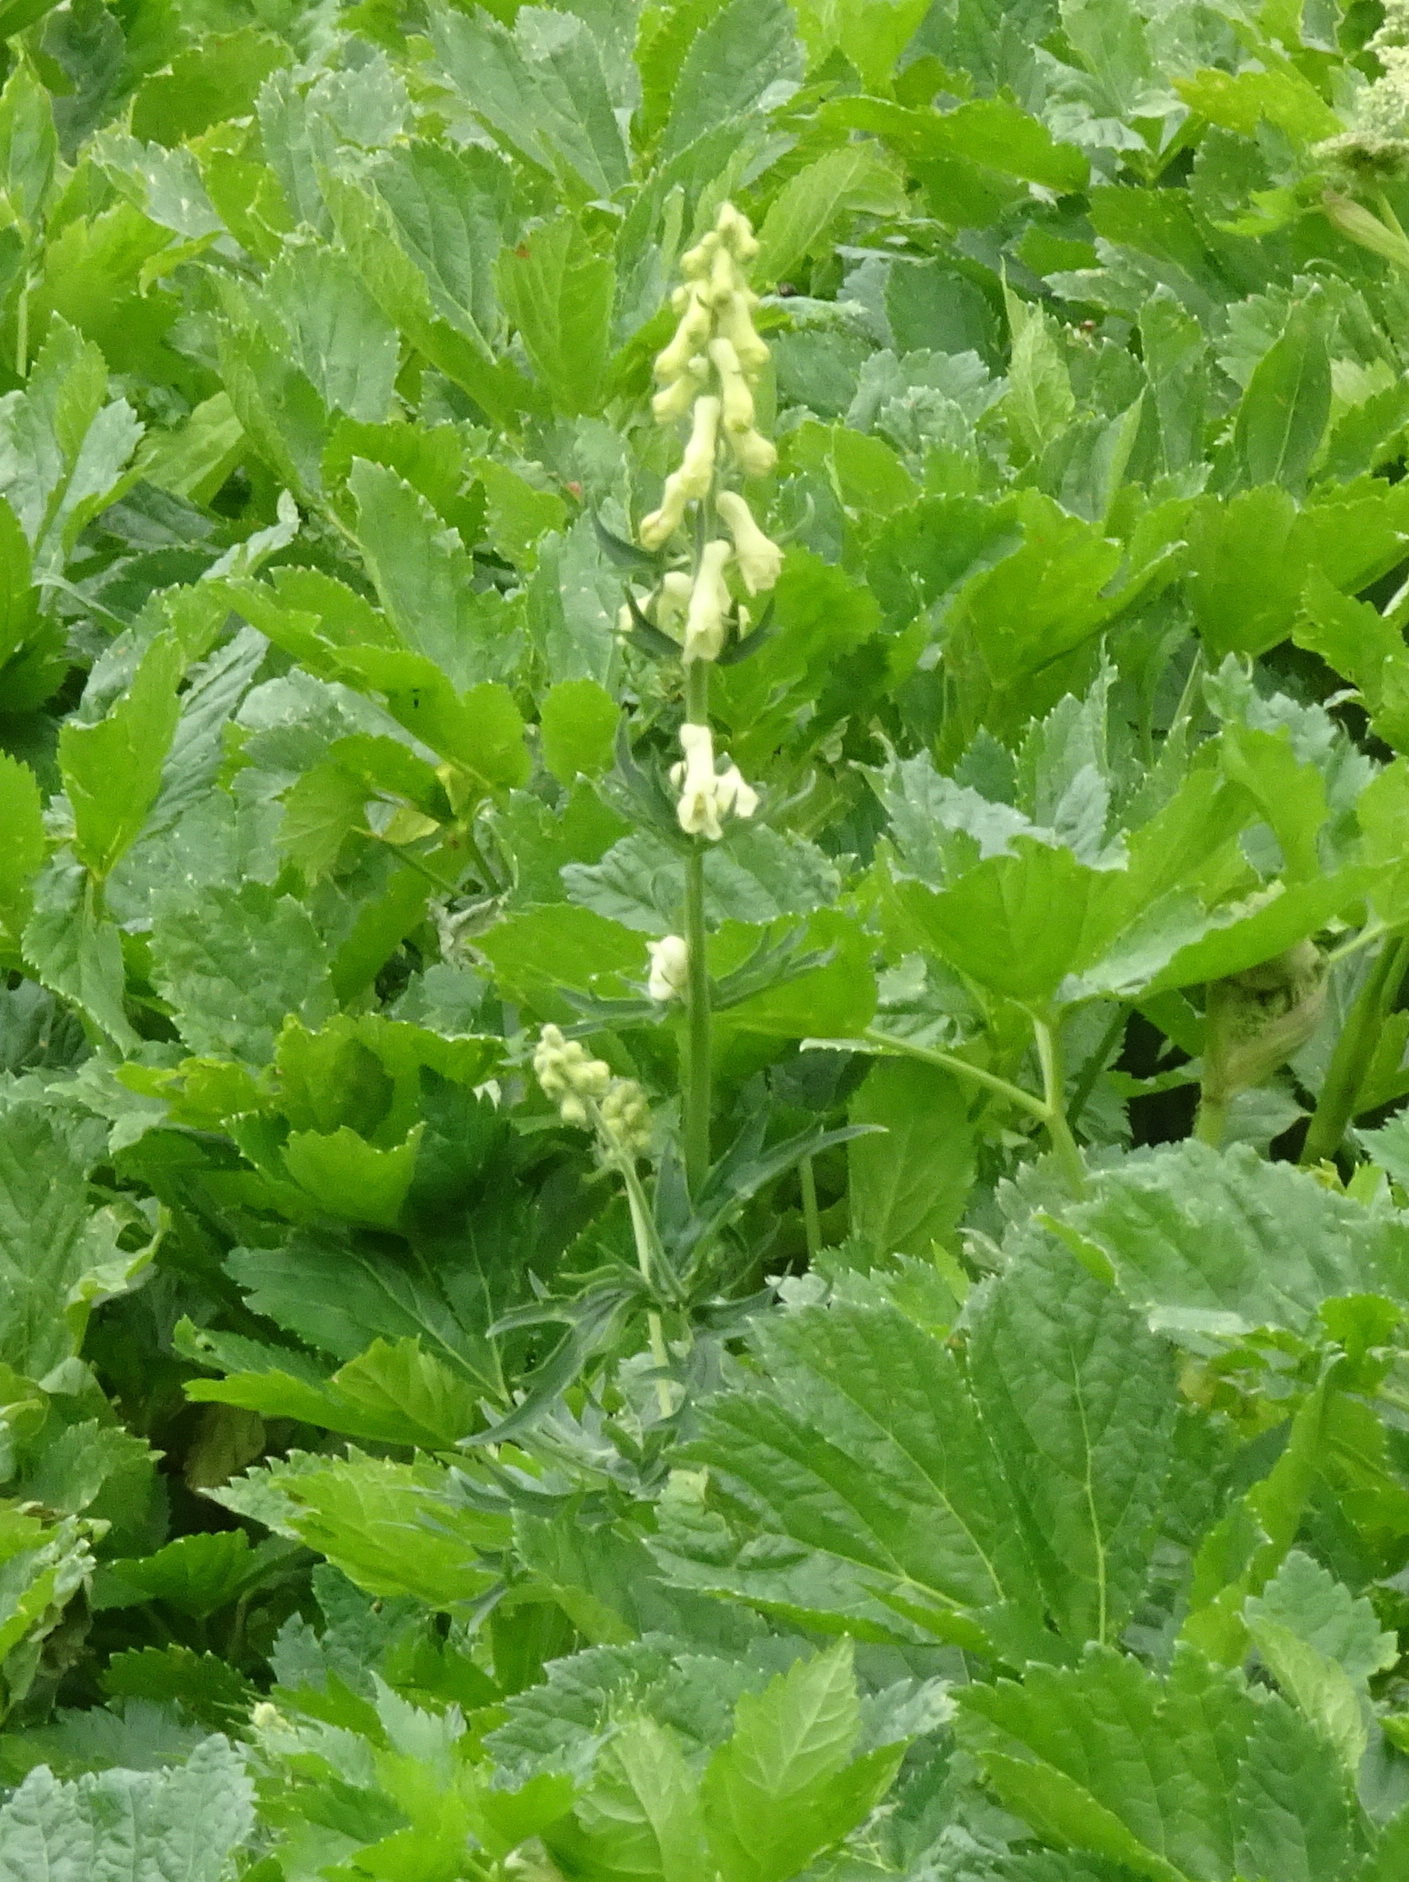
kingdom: Plantae
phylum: Tracheophyta
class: Magnoliopsida
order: Ranunculales
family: Ranunculaceae
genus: Aconitum
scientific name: Aconitum lamarckii
